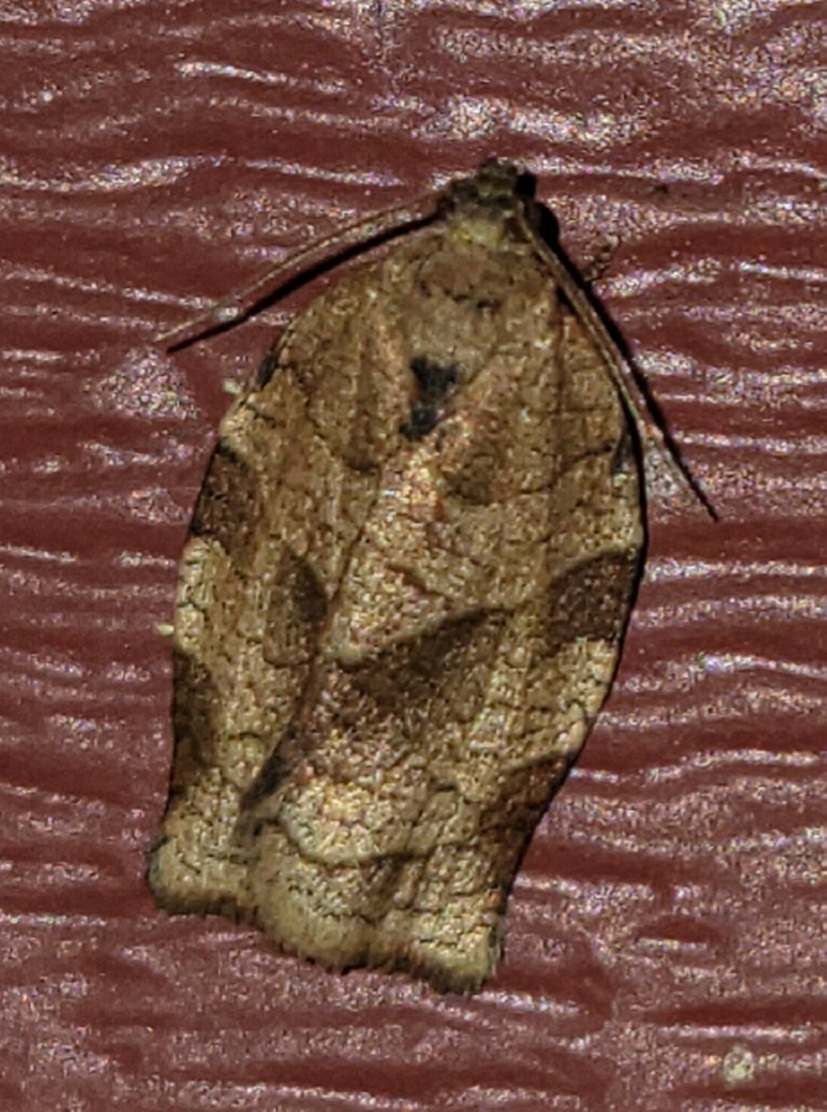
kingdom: Animalia
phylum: Arthropoda
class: Insecta
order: Lepidoptera
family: Tortricidae
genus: Choristoneura
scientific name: Choristoneura rosaceana
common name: Oblique-banded leafroller moth
